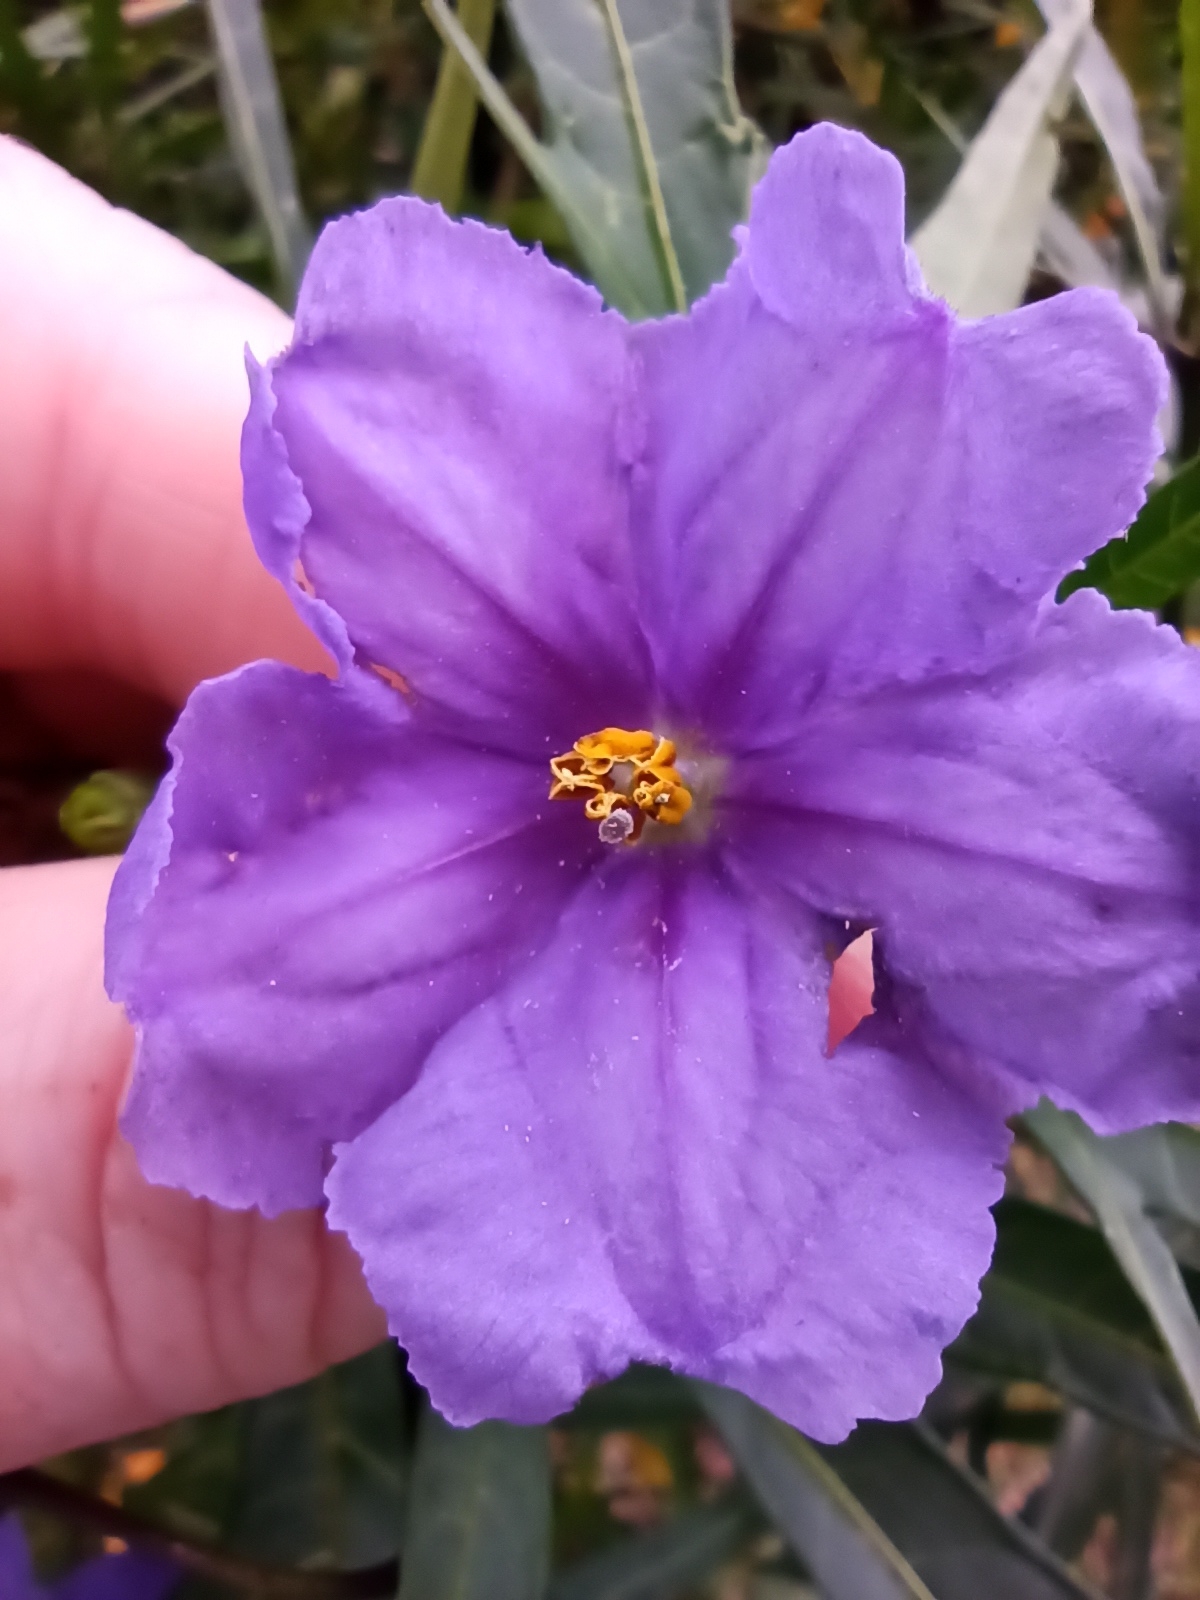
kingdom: Plantae
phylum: Tracheophyta
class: Magnoliopsida
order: Solanales
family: Solanaceae
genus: Solanum
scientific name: Solanum laciniatum
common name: Kangaroo-apple
